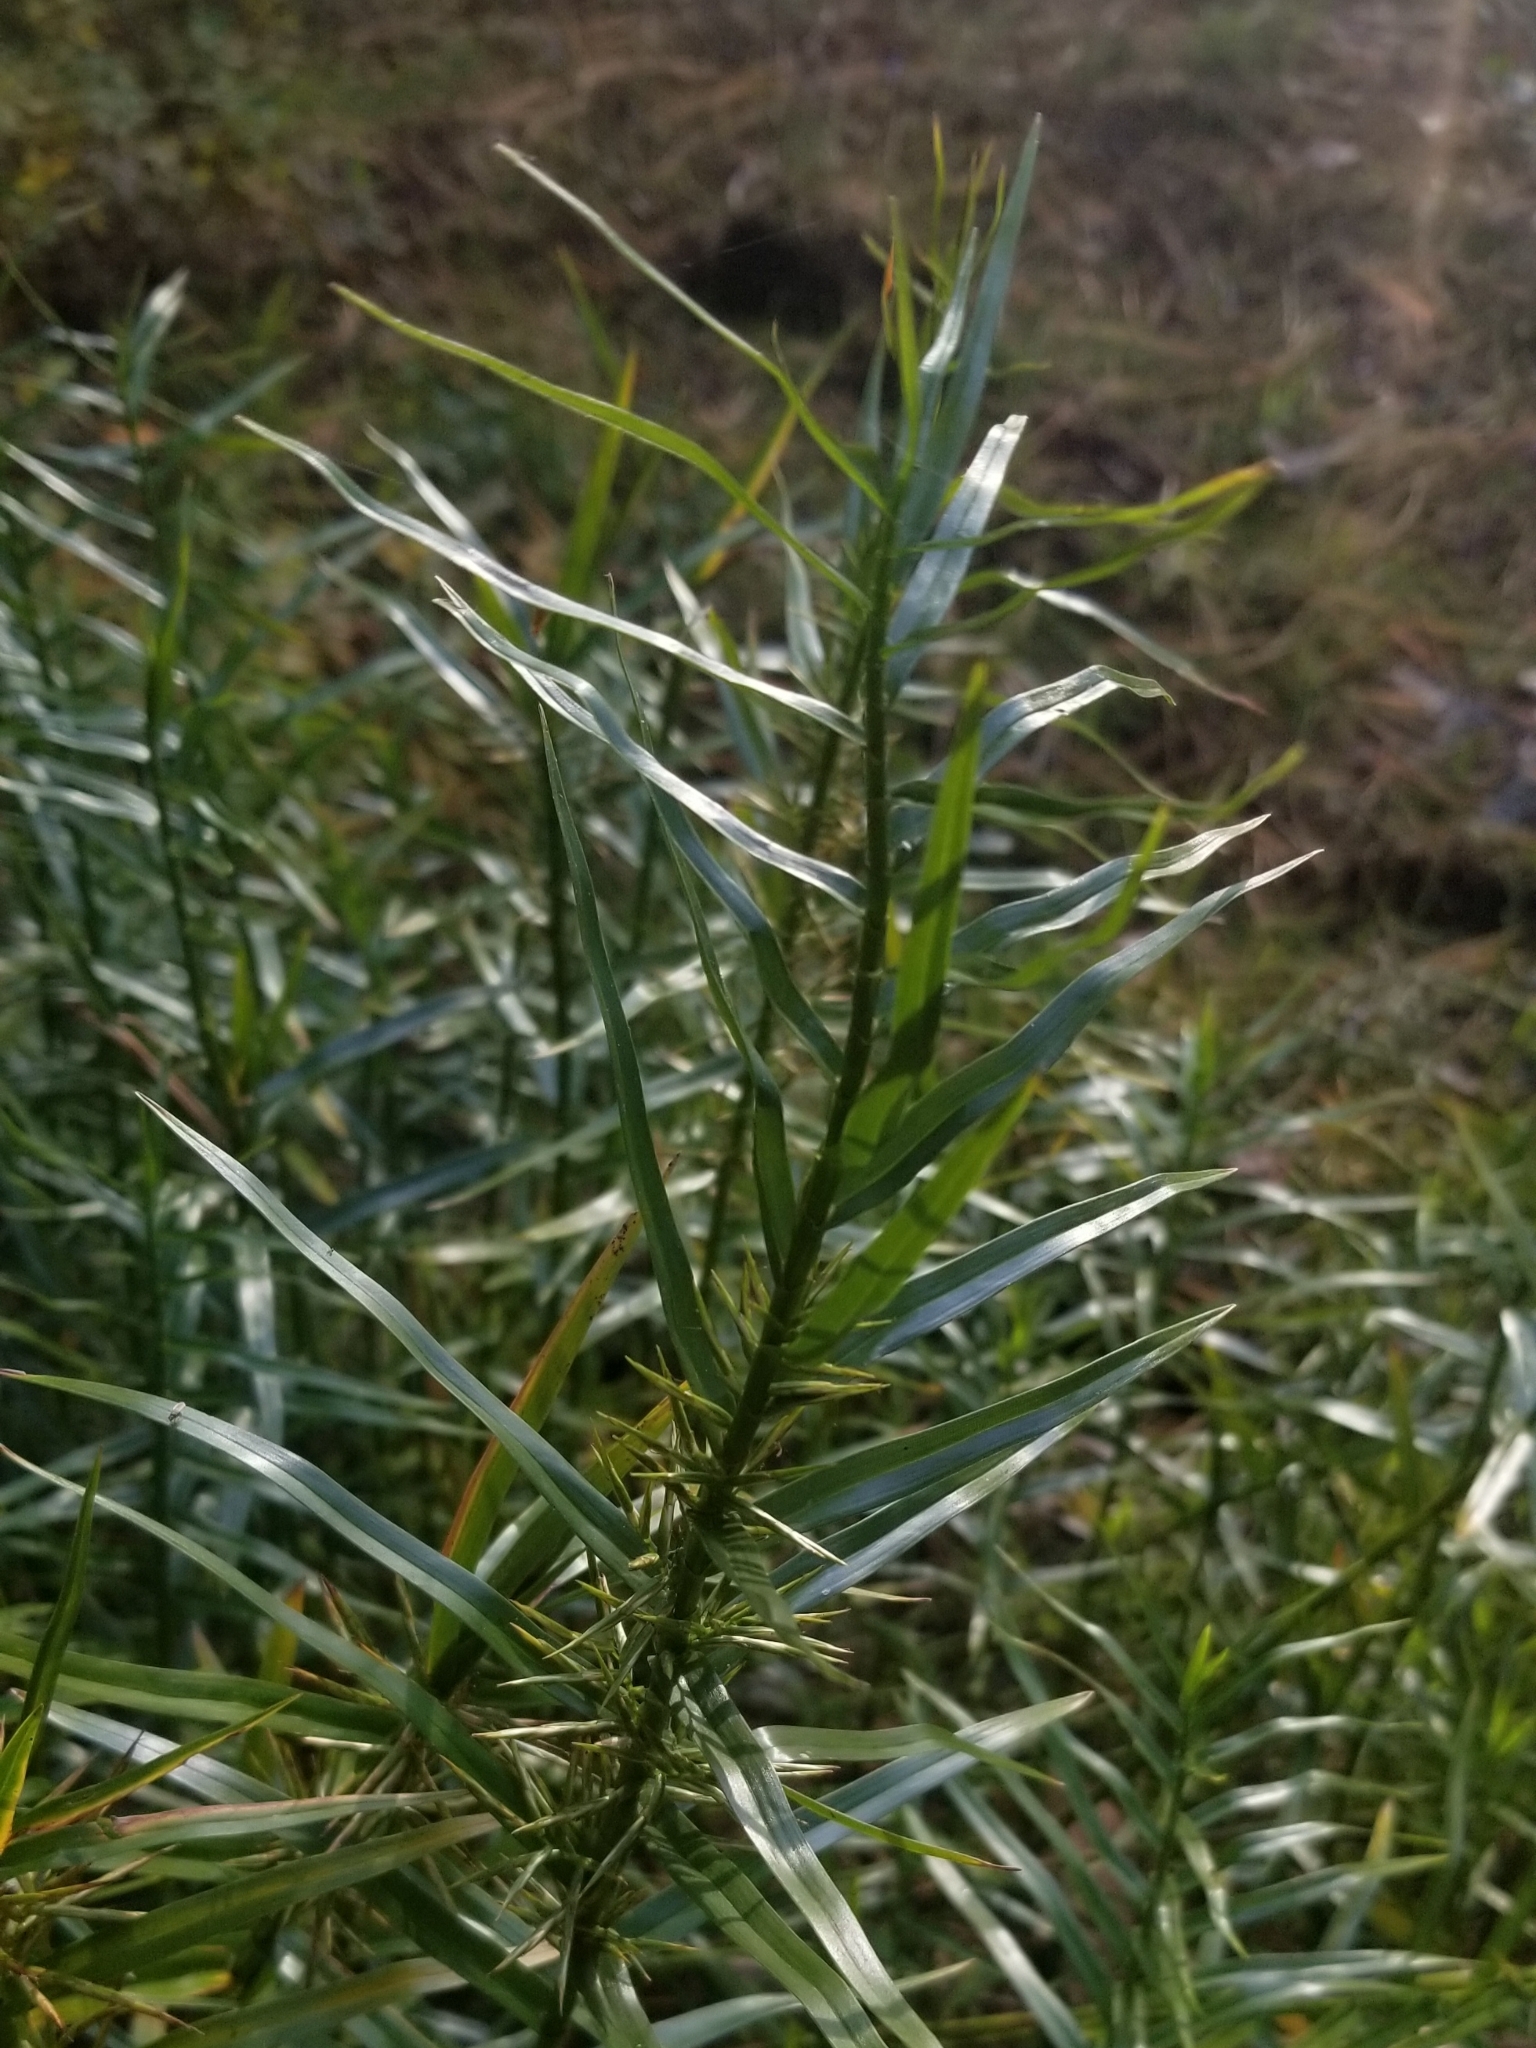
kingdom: Plantae
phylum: Tracheophyta
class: Liliopsida
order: Poales
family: Cyperaceae
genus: Dulichium
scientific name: Dulichium arundinaceum
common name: Three-way sedge
